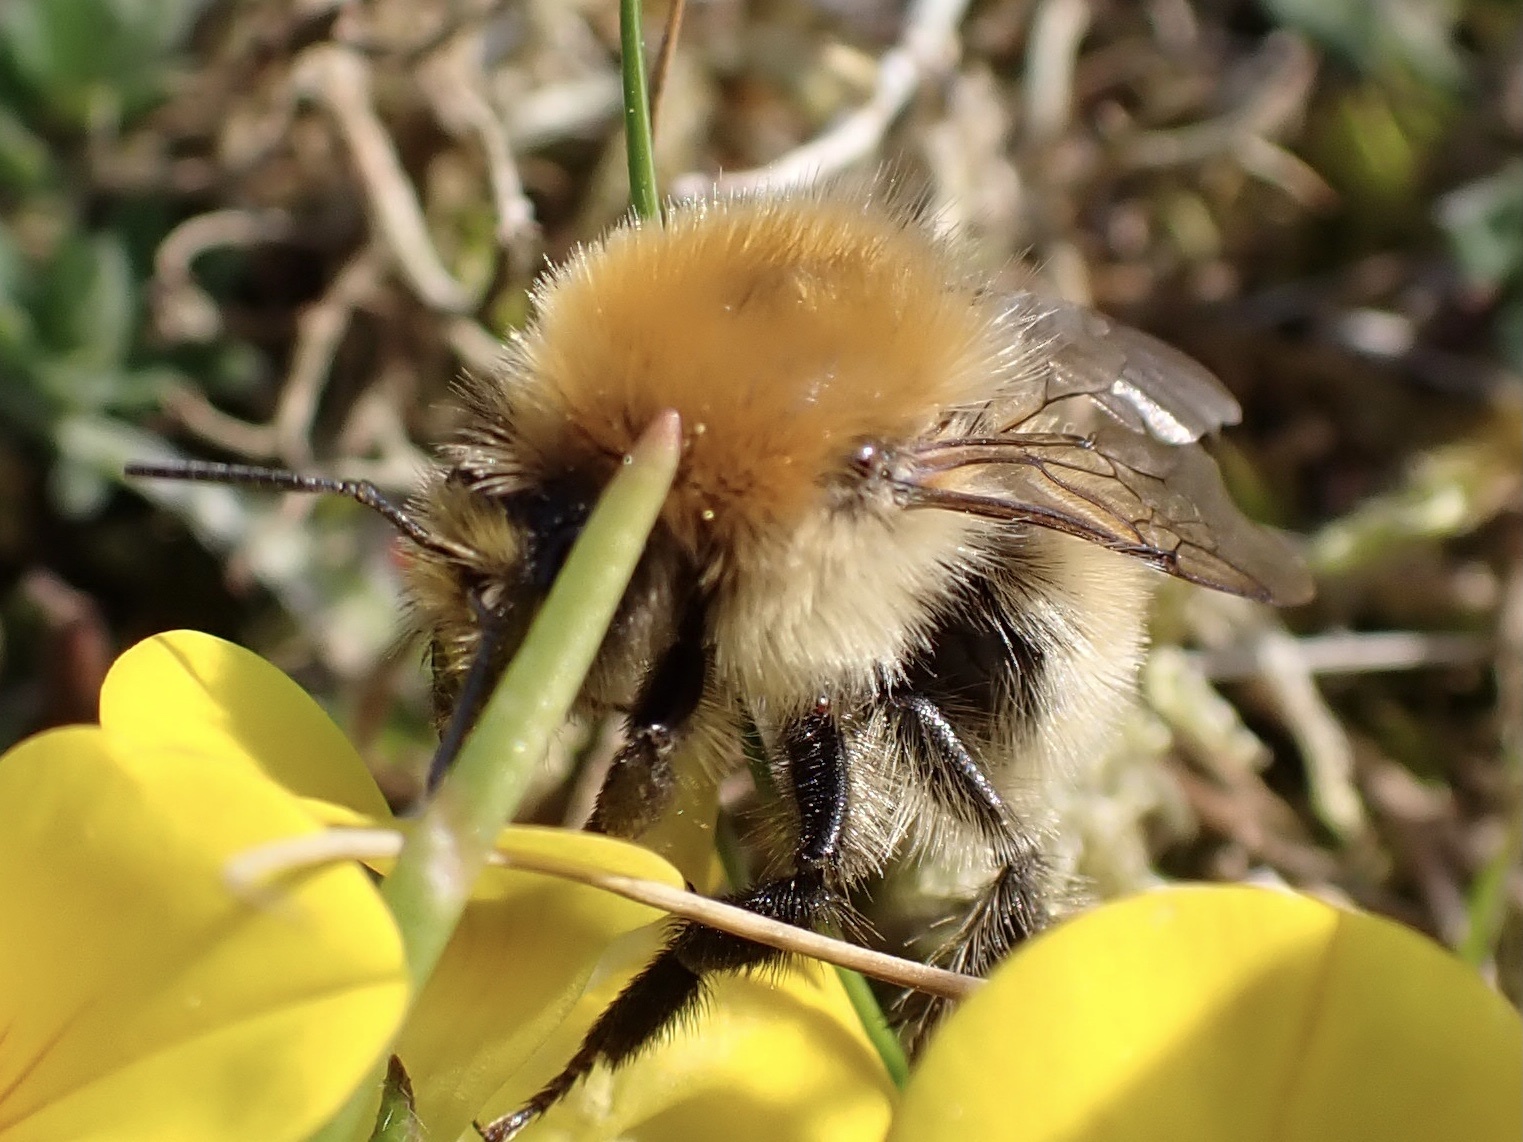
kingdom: Animalia
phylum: Arthropoda
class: Insecta
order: Hymenoptera
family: Apidae
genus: Bombus
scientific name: Bombus muscorum
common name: Moss carder-bee
